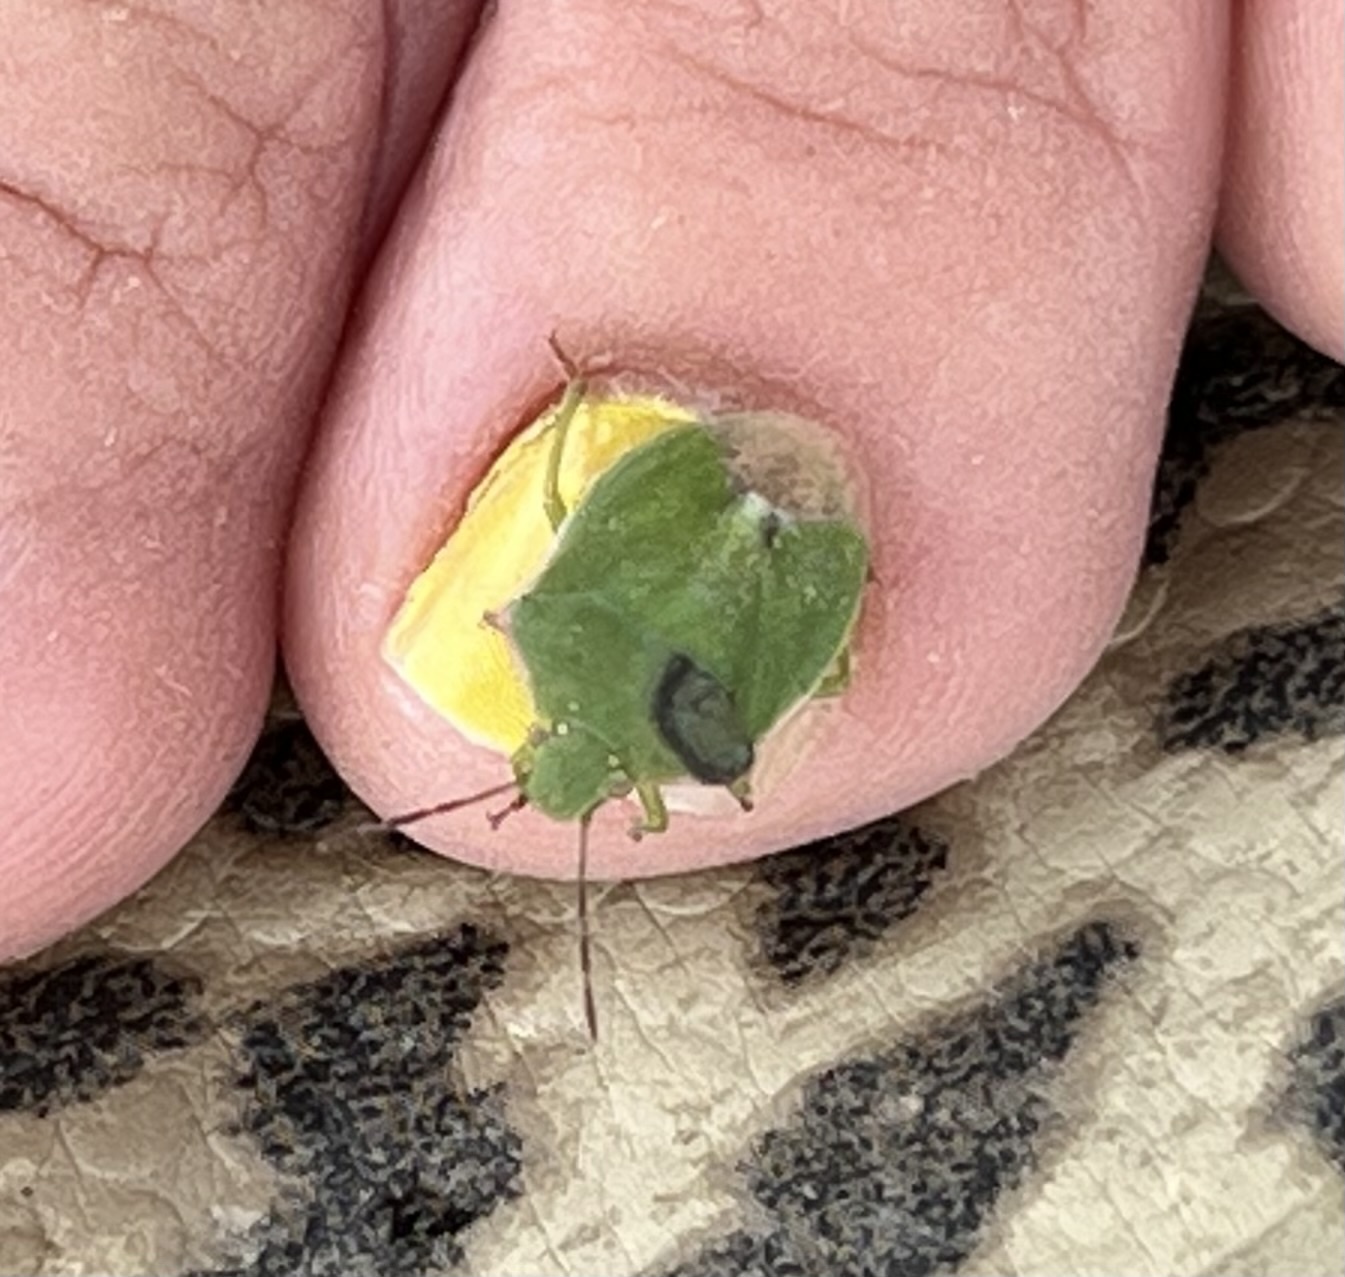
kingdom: Animalia
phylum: Arthropoda
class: Insecta
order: Hemiptera
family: Pentatomidae
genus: Thyanta
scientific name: Thyanta accerra
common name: Stink bug
